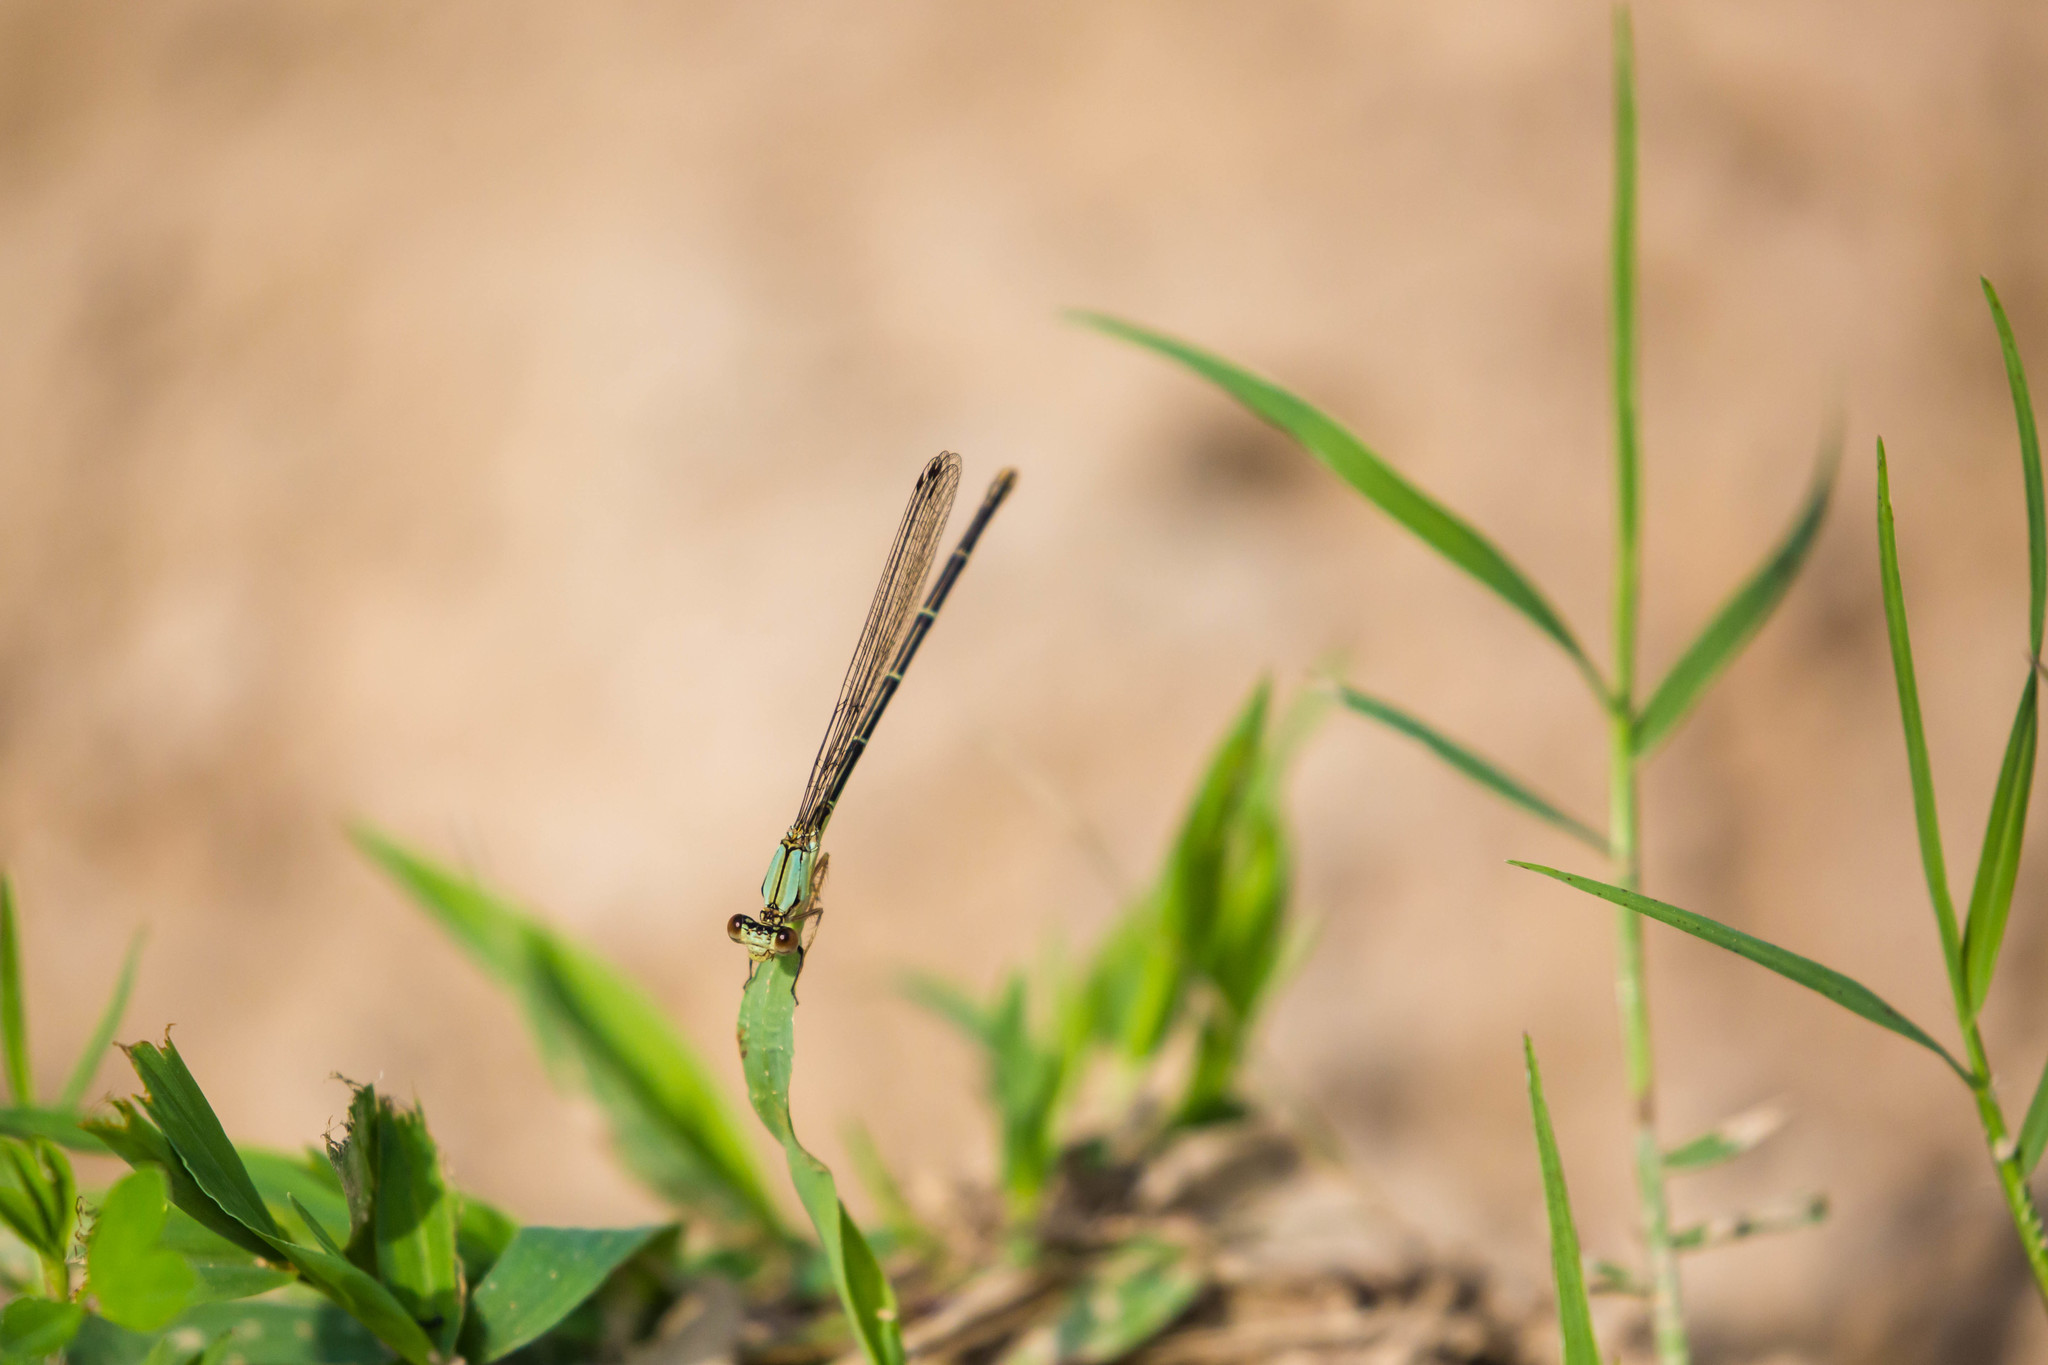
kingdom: Animalia
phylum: Arthropoda
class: Insecta
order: Odonata
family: Coenagrionidae
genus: Argia
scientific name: Argia apicalis
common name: Blue-fronted dancer
